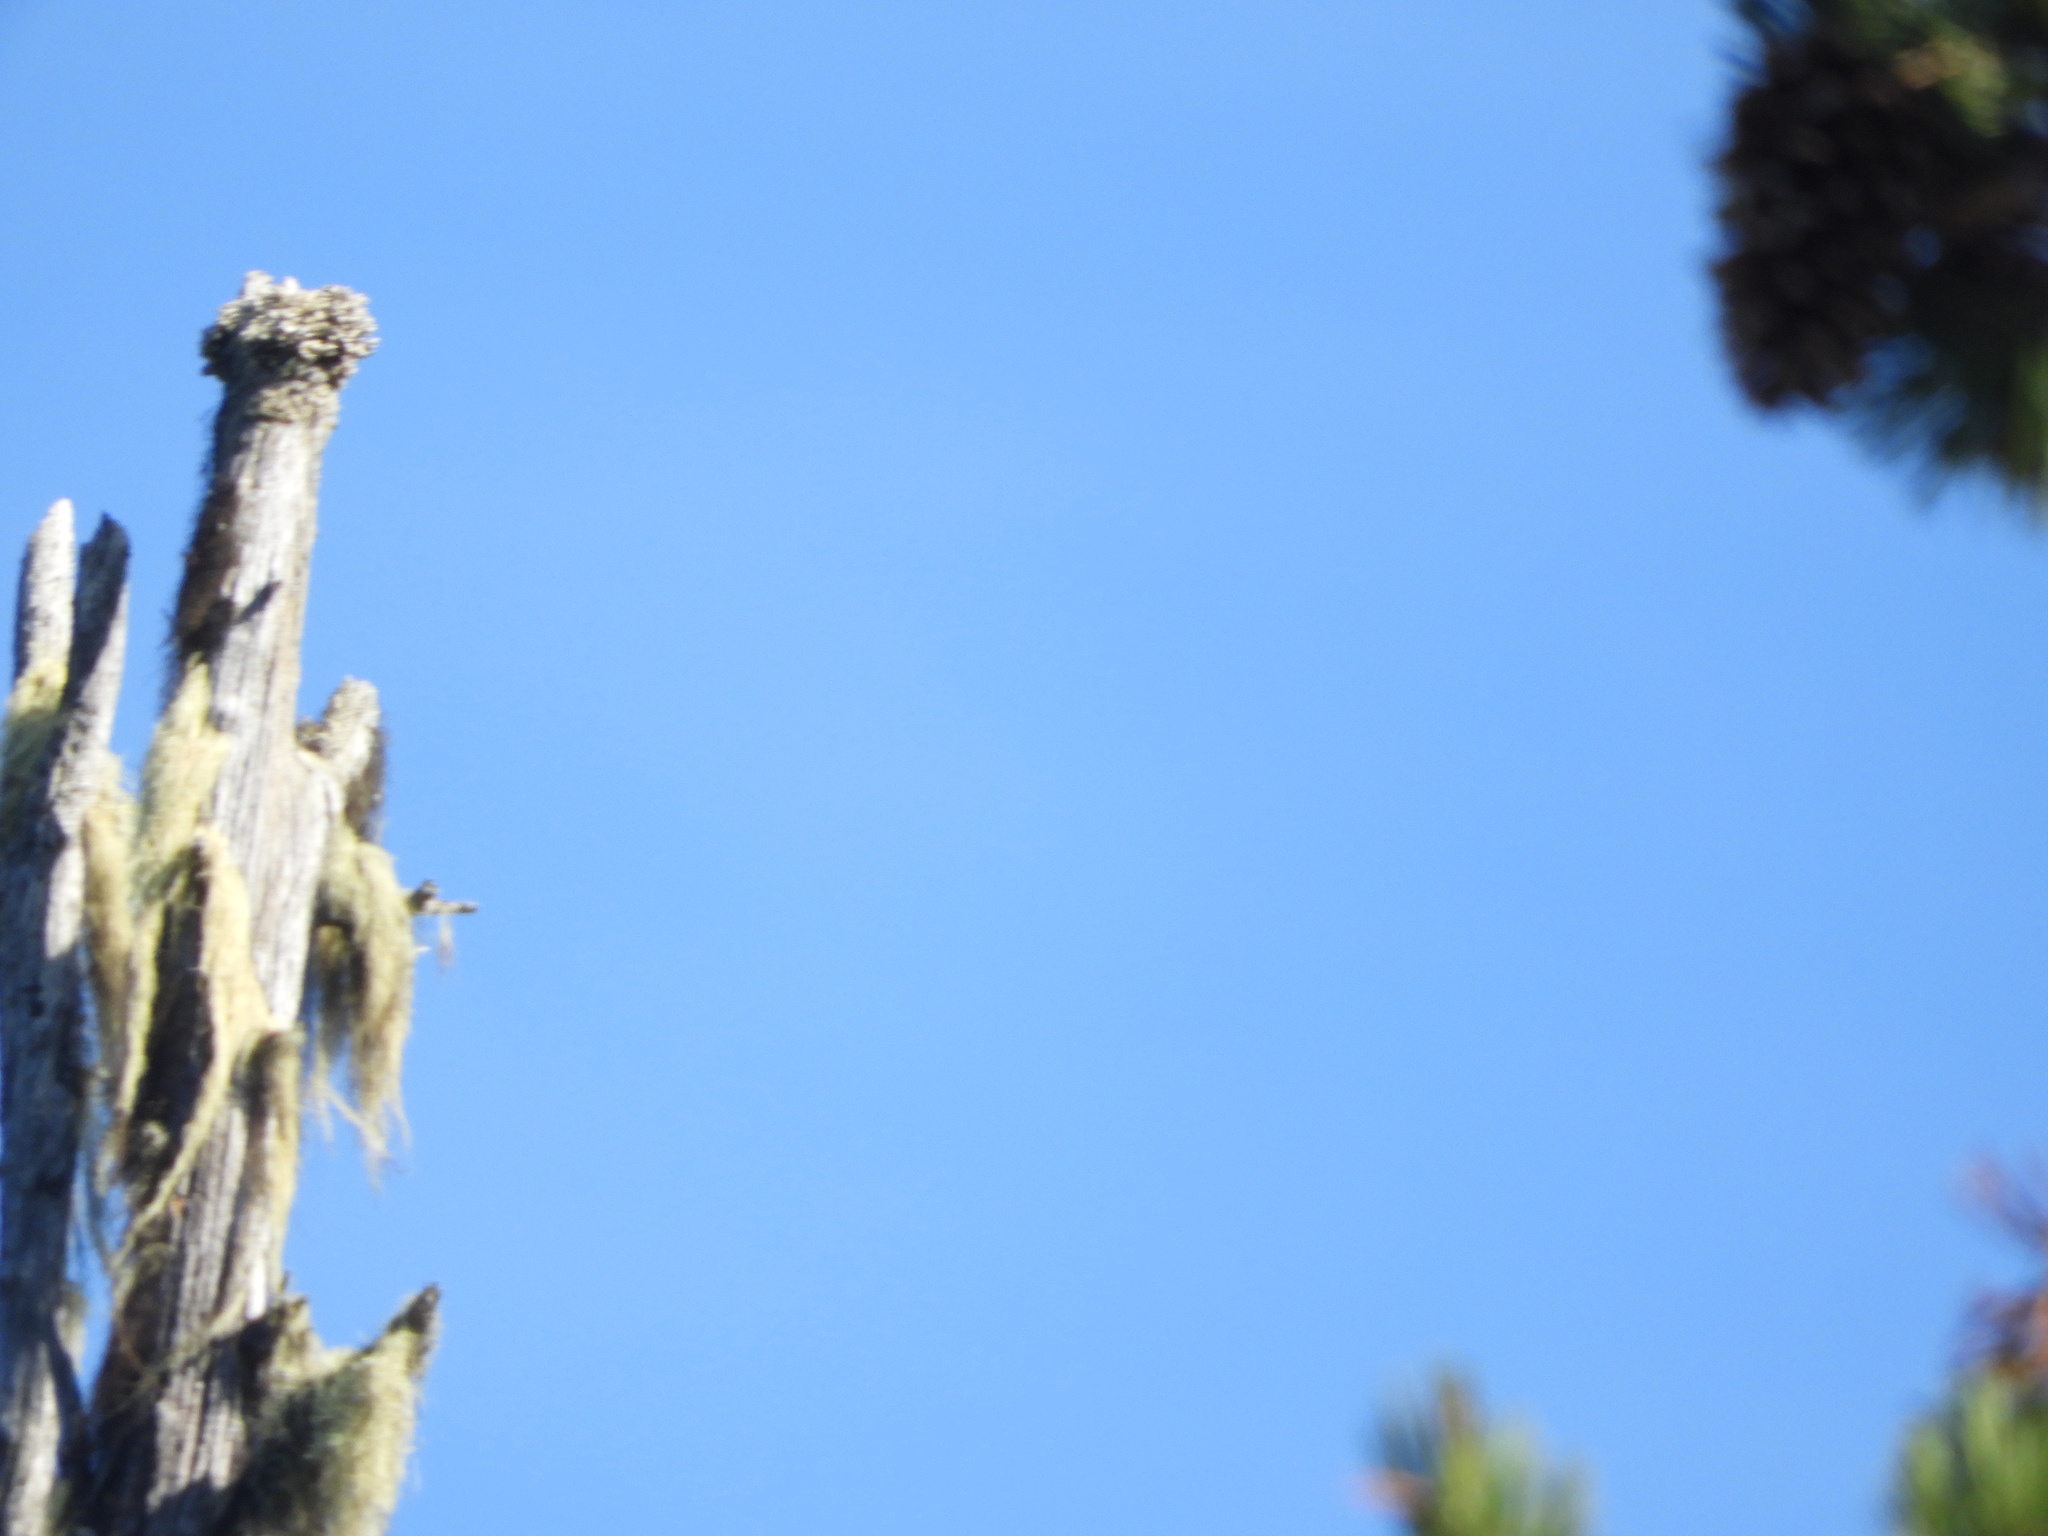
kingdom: Fungi
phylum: Ascomycota
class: Lecanoromycetes
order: Caliciales
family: Caliciaceae
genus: Acroscyphus
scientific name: Acroscyphus sphaerophoroides
